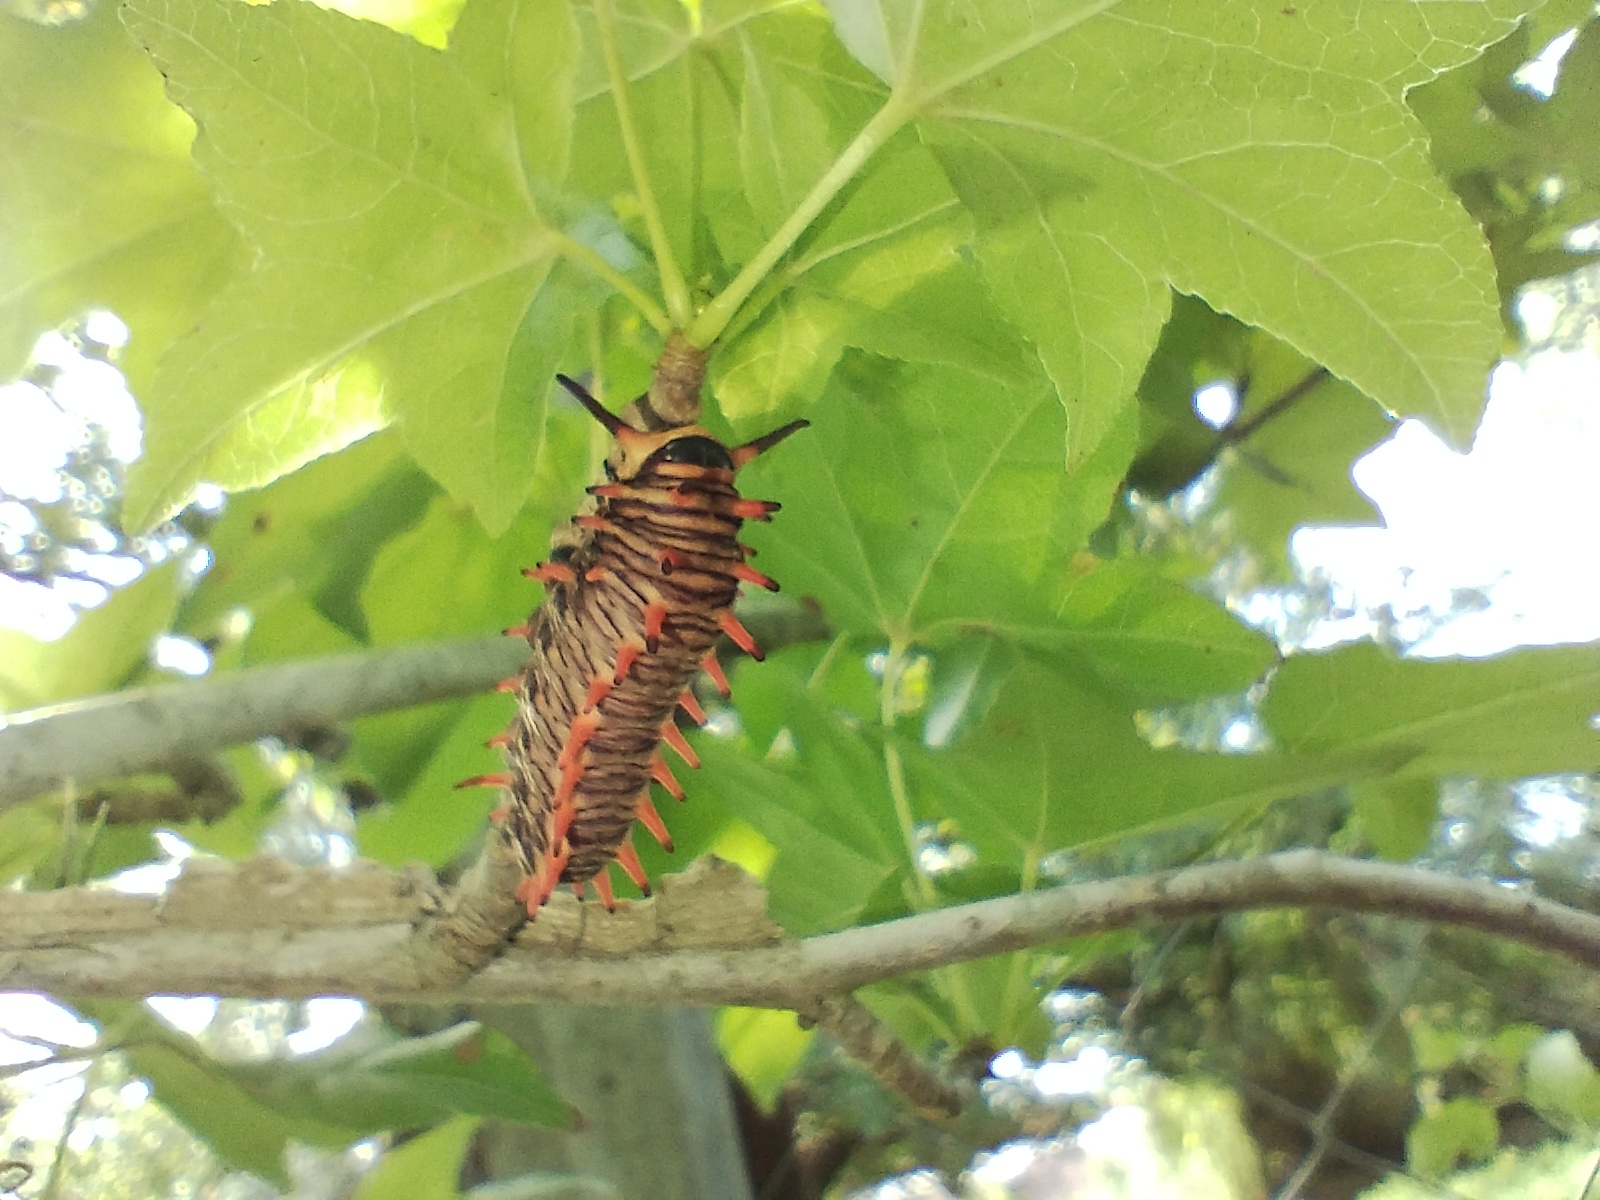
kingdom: Animalia
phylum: Arthropoda
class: Insecta
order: Lepidoptera
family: Papilionidae
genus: Battus
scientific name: Battus polydamas
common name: Polydamas swallowtail
